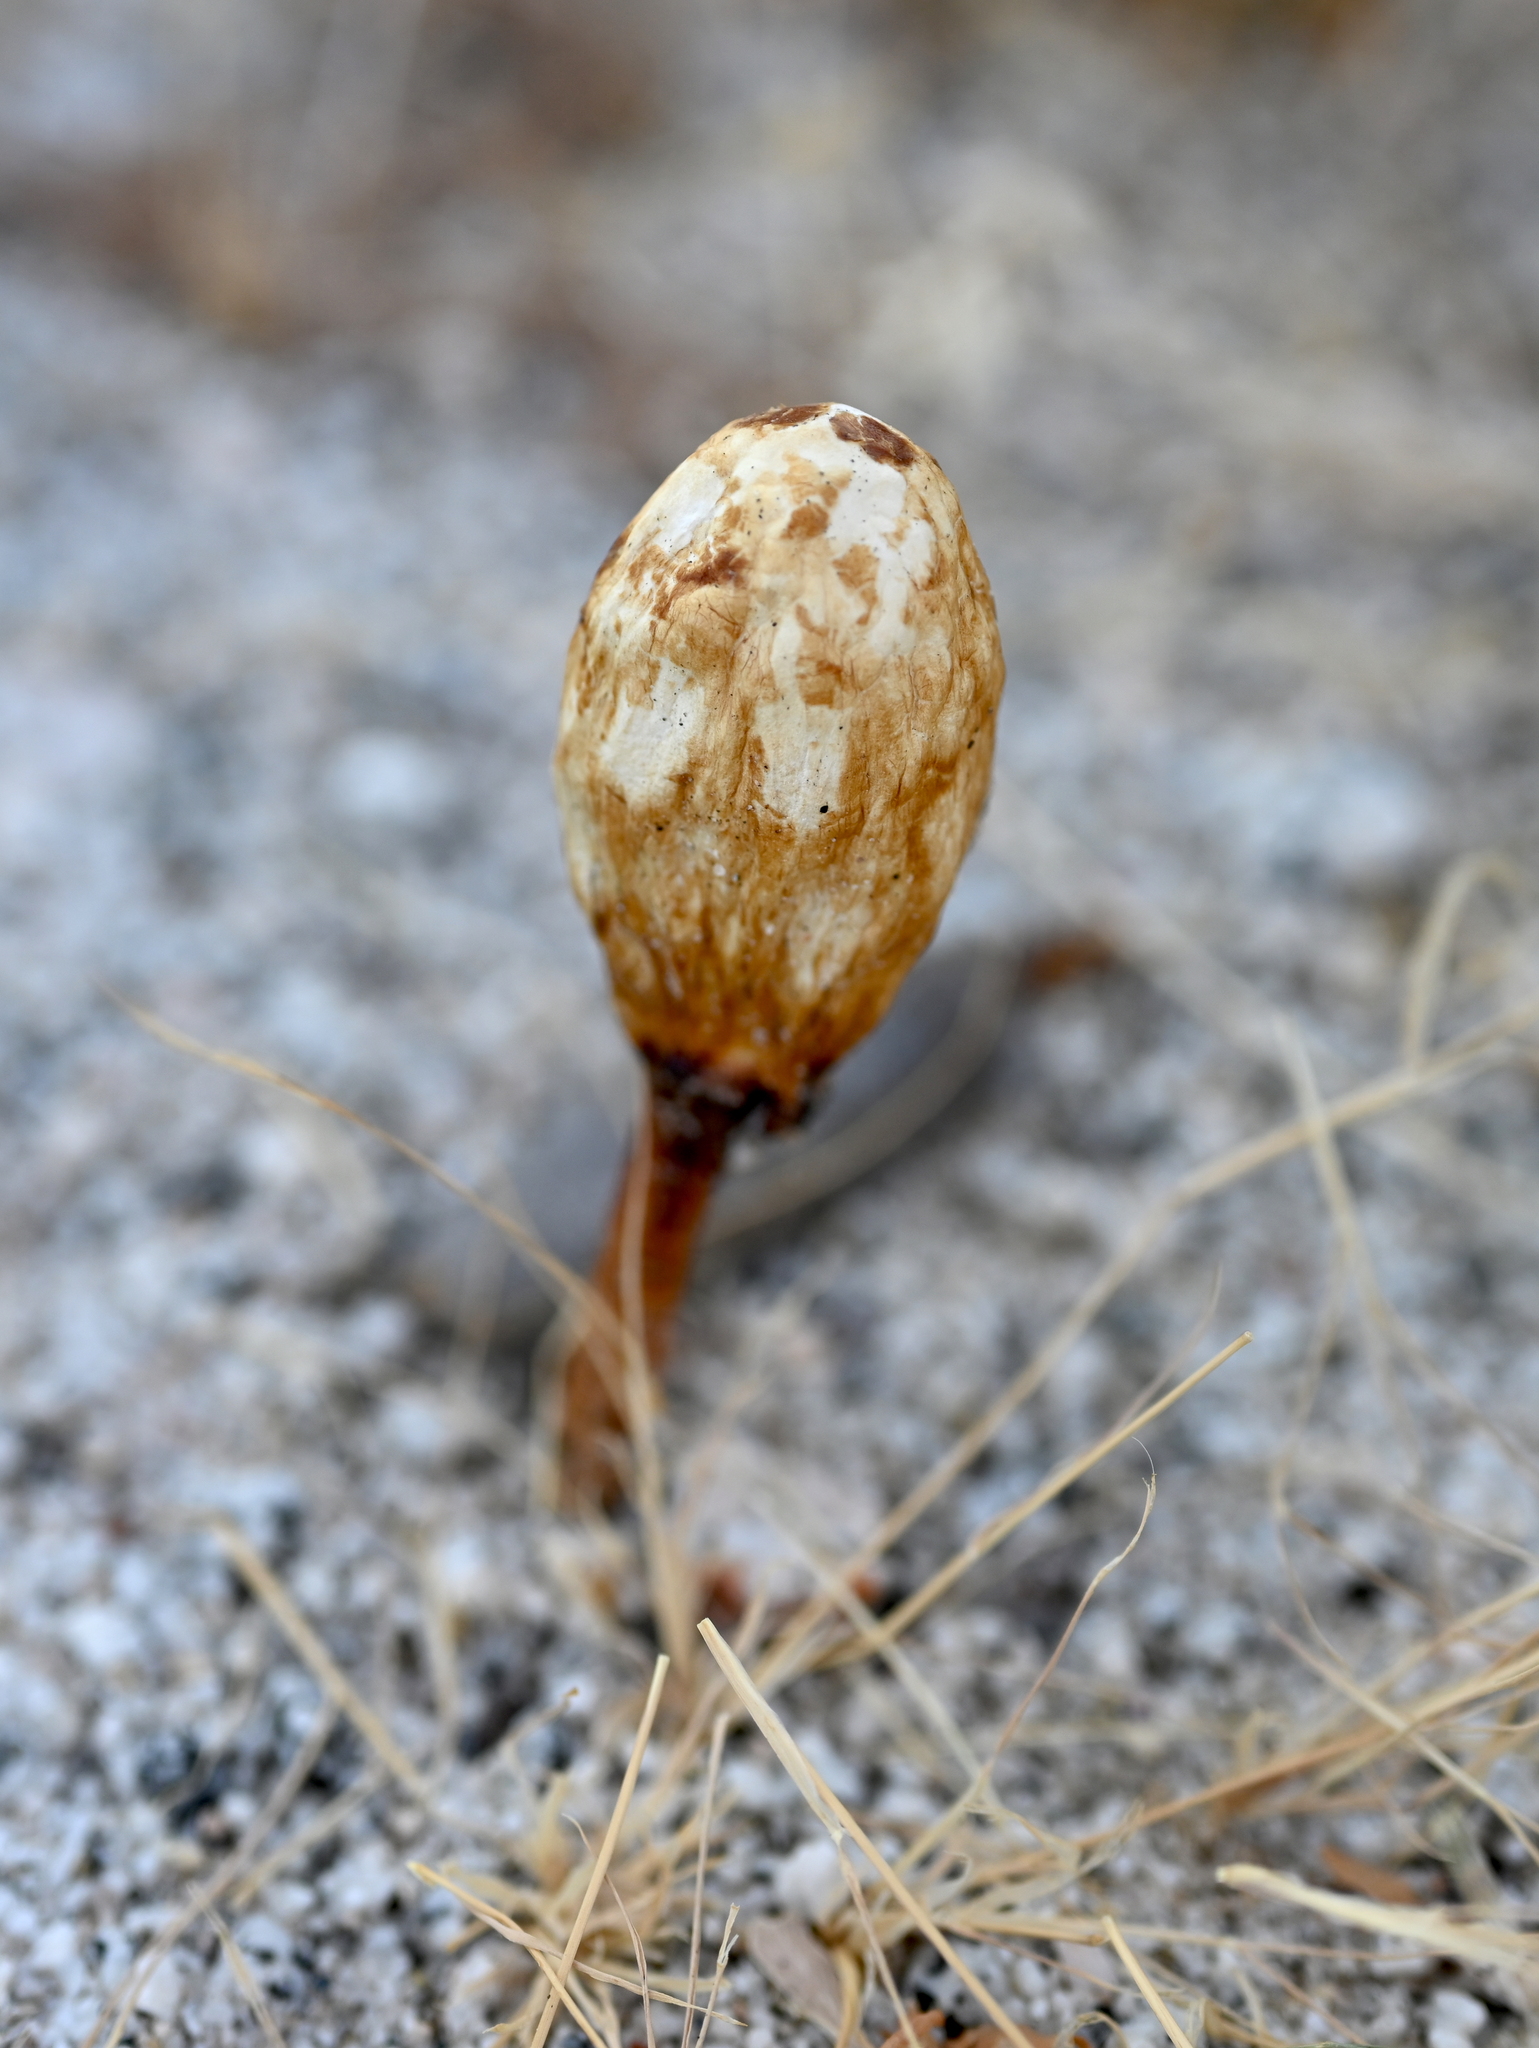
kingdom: Fungi
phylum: Basidiomycota
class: Agaricomycetes
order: Agaricales
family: Agaricaceae
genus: Podaxis
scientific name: Podaxis pistillaris
